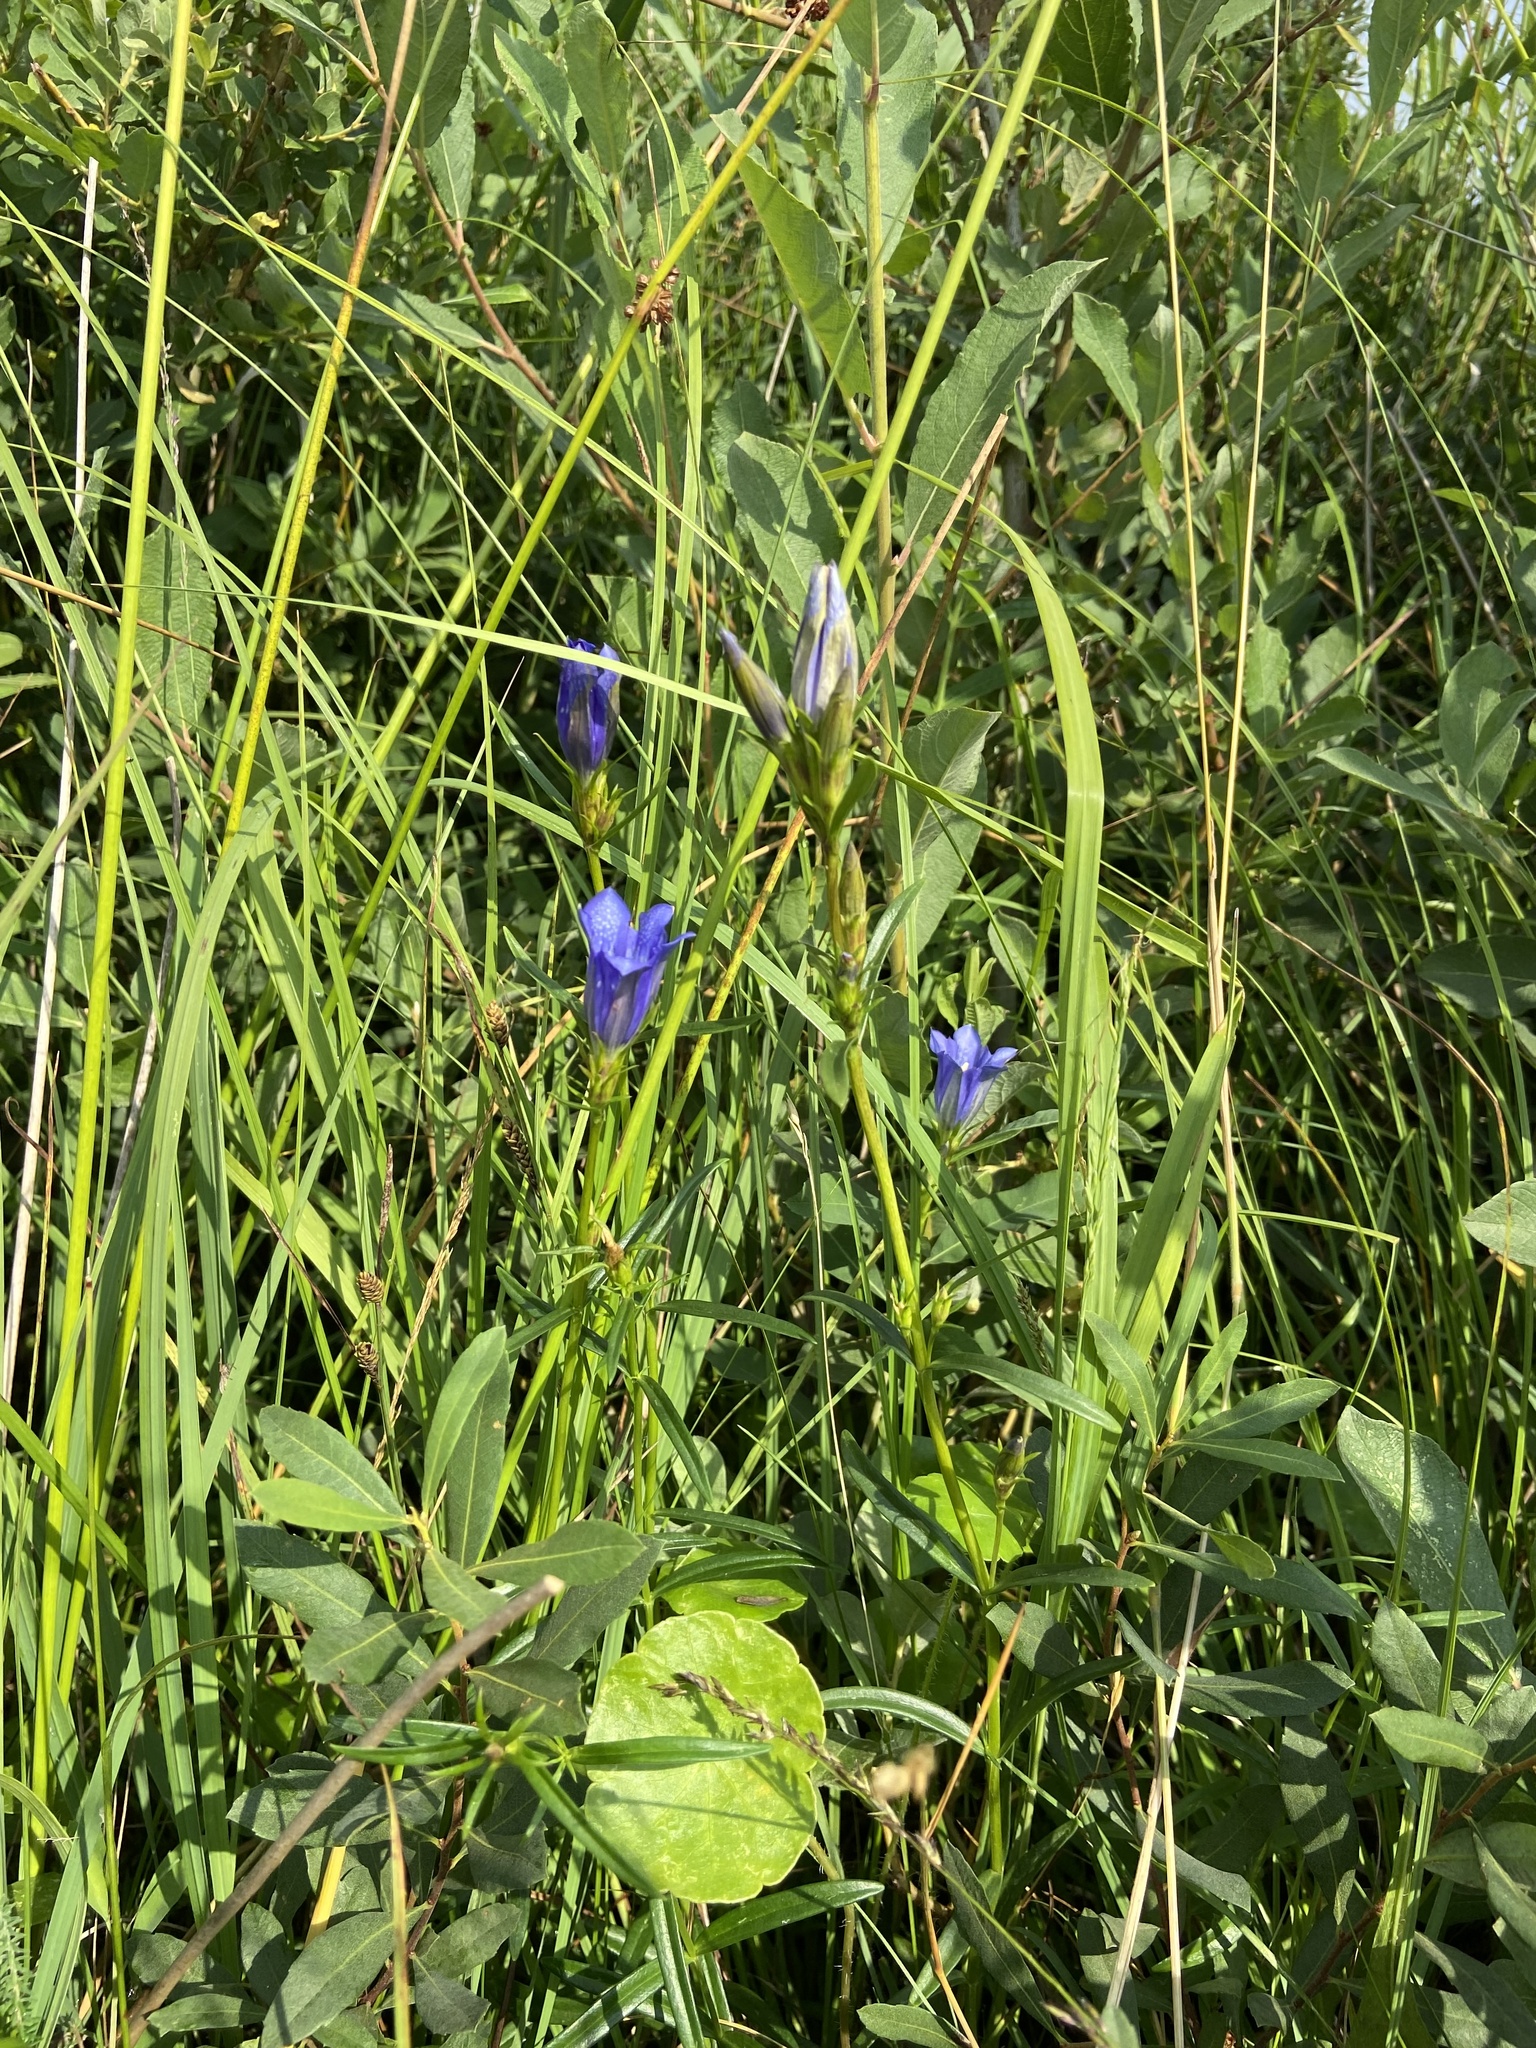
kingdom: Plantae
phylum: Tracheophyta
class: Magnoliopsida
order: Gentianales
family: Gentianaceae
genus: Gentiana
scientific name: Gentiana pneumonanthe
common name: Marsh gentian
